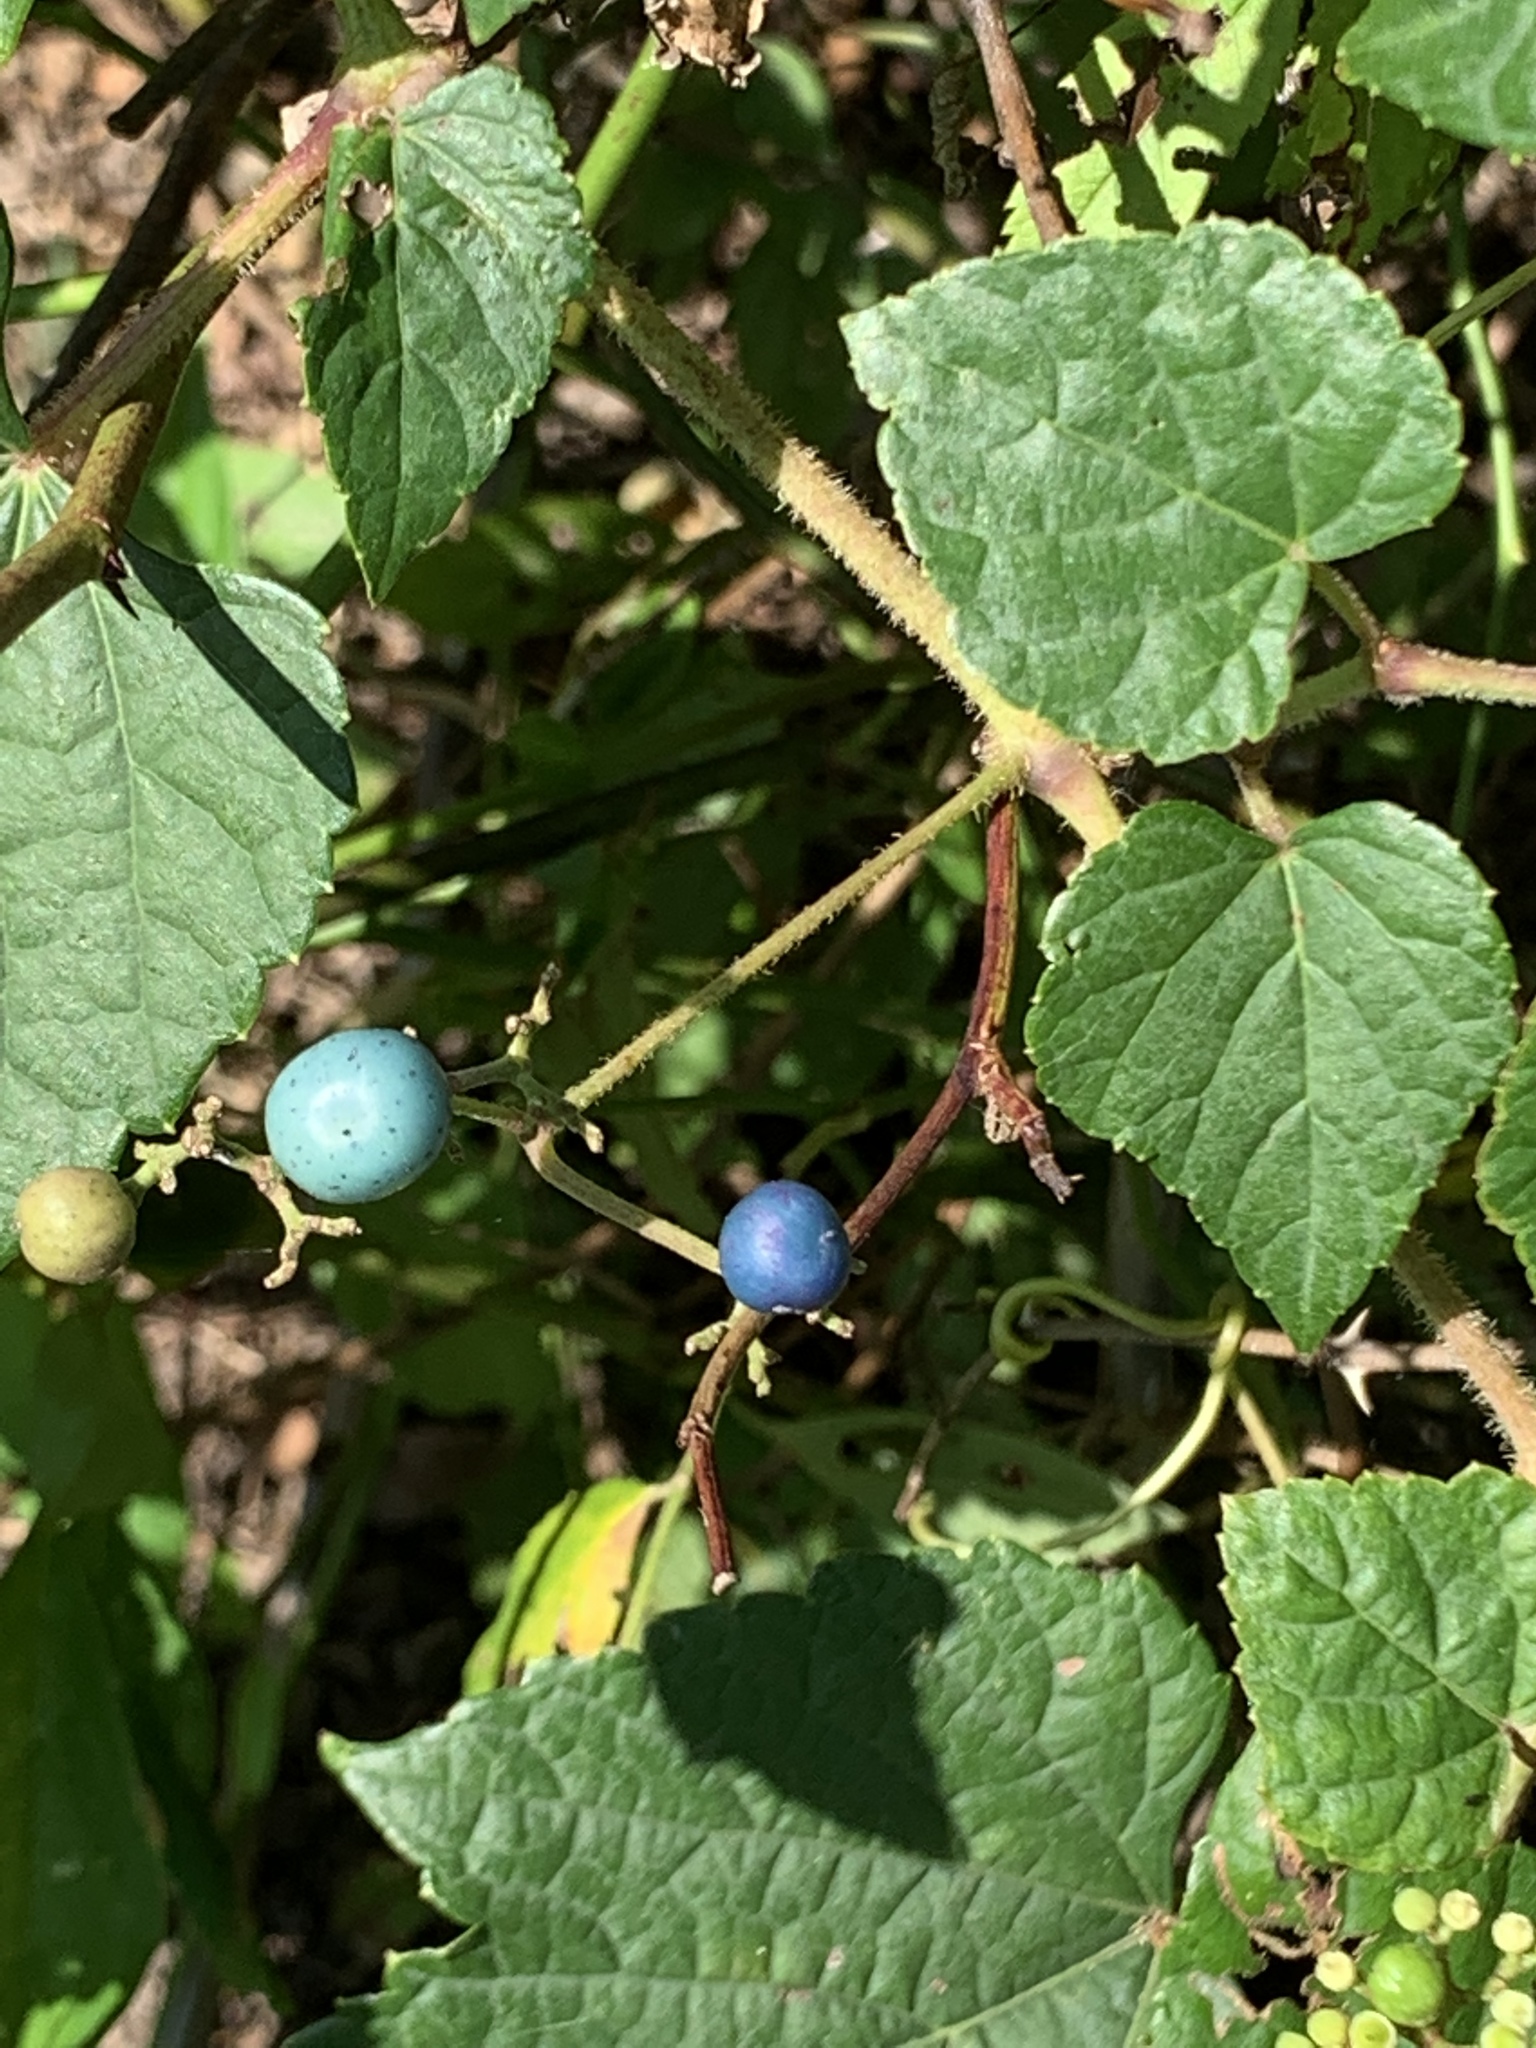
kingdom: Plantae
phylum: Tracheophyta
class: Magnoliopsida
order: Vitales
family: Vitaceae
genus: Ampelopsis
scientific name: Ampelopsis glandulosa
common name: Amur peppervine
